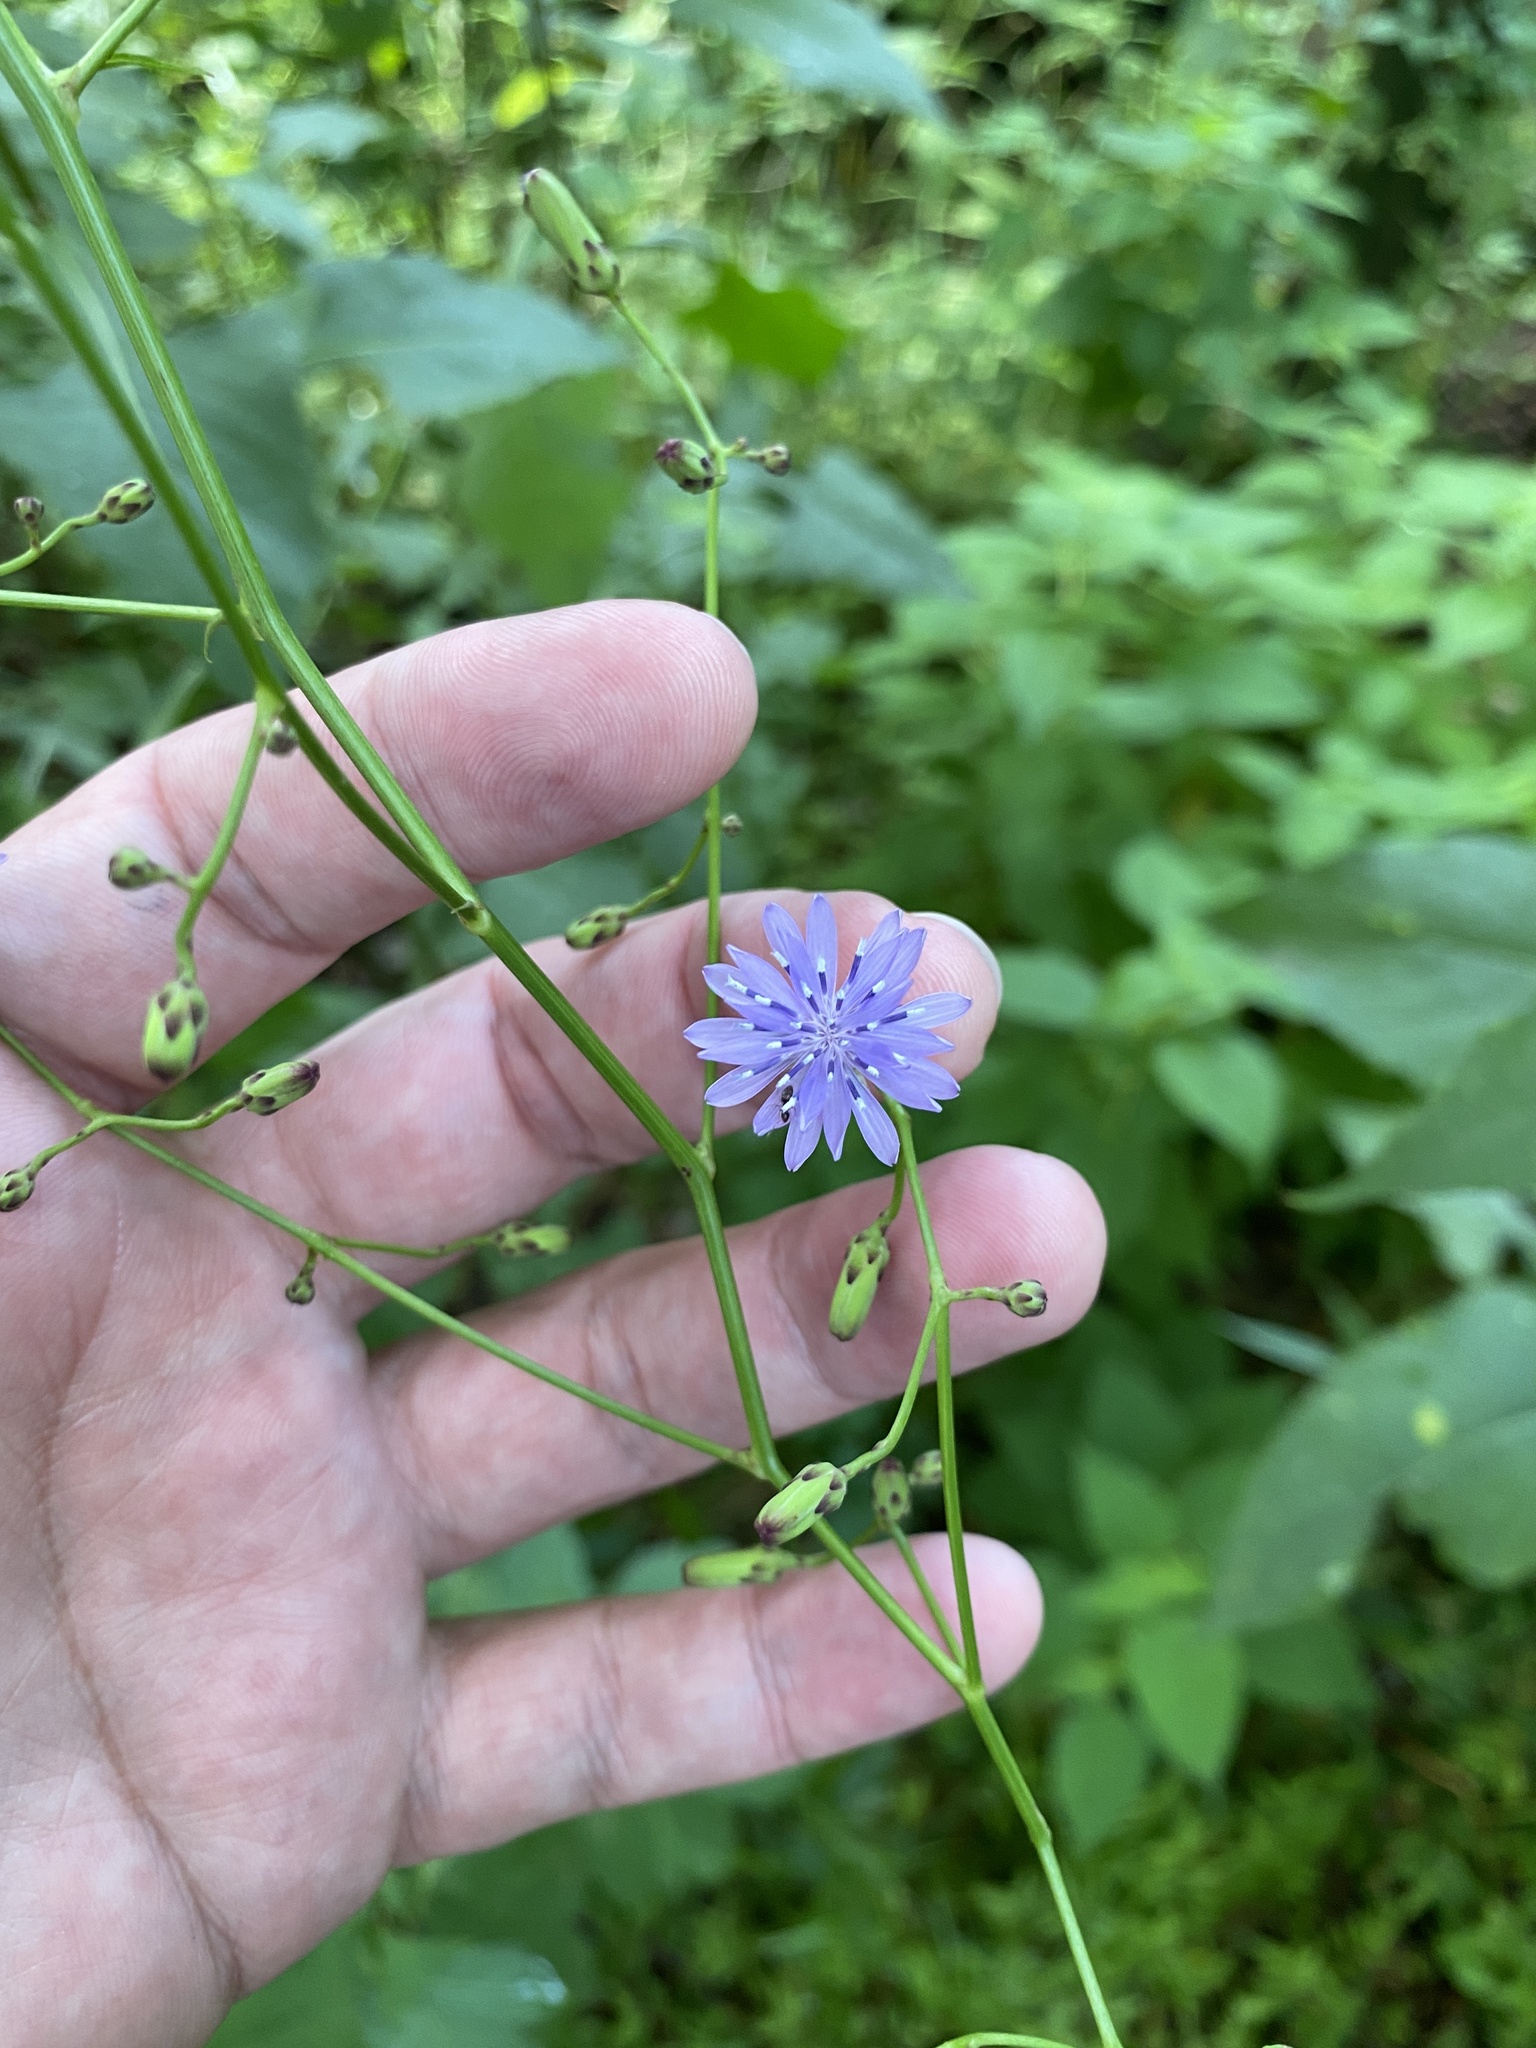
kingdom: Plantae
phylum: Tracheophyta
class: Magnoliopsida
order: Asterales
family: Asteraceae
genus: Lactuca
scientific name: Lactuca floridana
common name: Woodland lettuce
